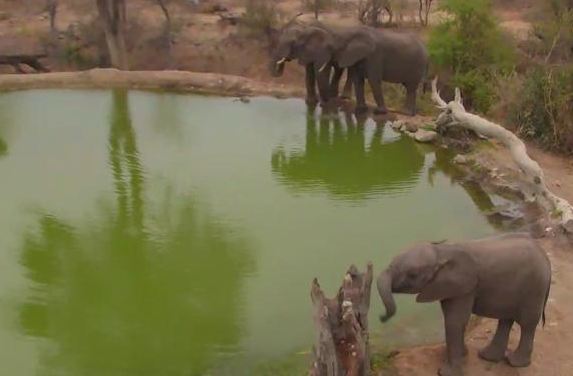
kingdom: Animalia
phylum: Chordata
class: Mammalia
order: Proboscidea
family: Elephantidae
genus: Loxodonta
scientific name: Loxodonta africana
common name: African elephant
